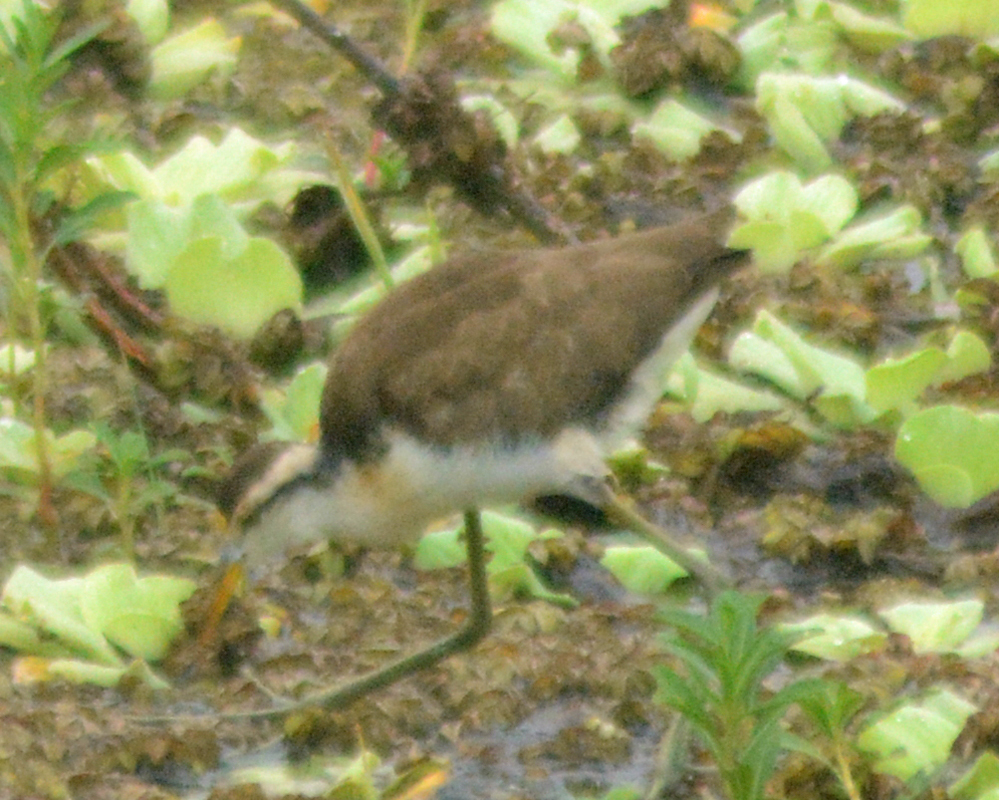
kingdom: Animalia
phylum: Chordata
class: Aves
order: Charadriiformes
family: Jacanidae
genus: Jacana
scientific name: Jacana spinosa
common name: Northern jacana
